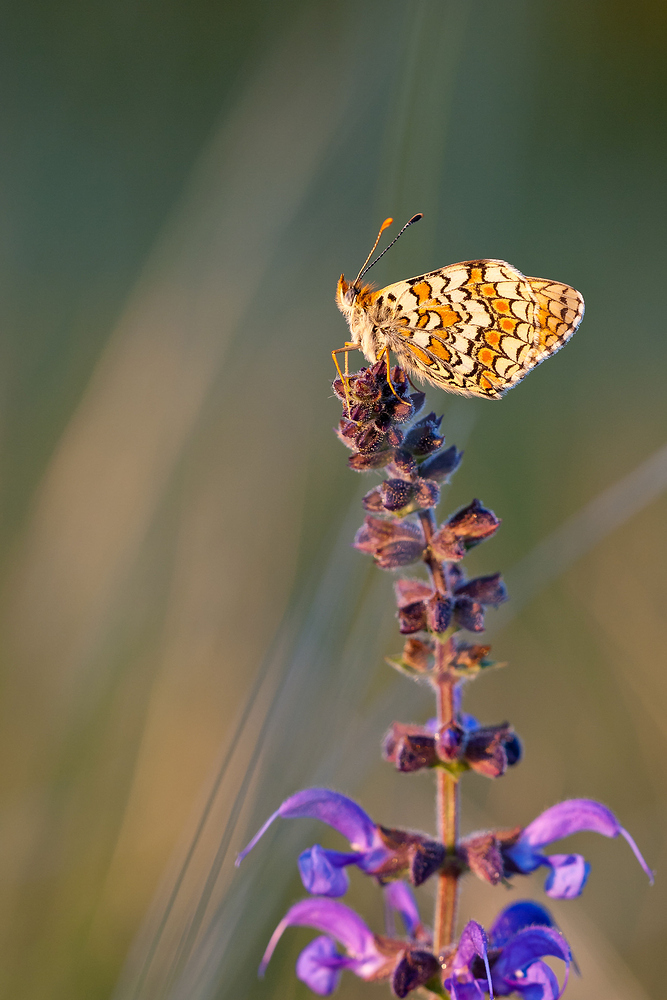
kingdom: Animalia
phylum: Arthropoda
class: Insecta
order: Lepidoptera
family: Nymphalidae
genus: Melitaea
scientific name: Melitaea phoebe
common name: Knapweed fritillary
